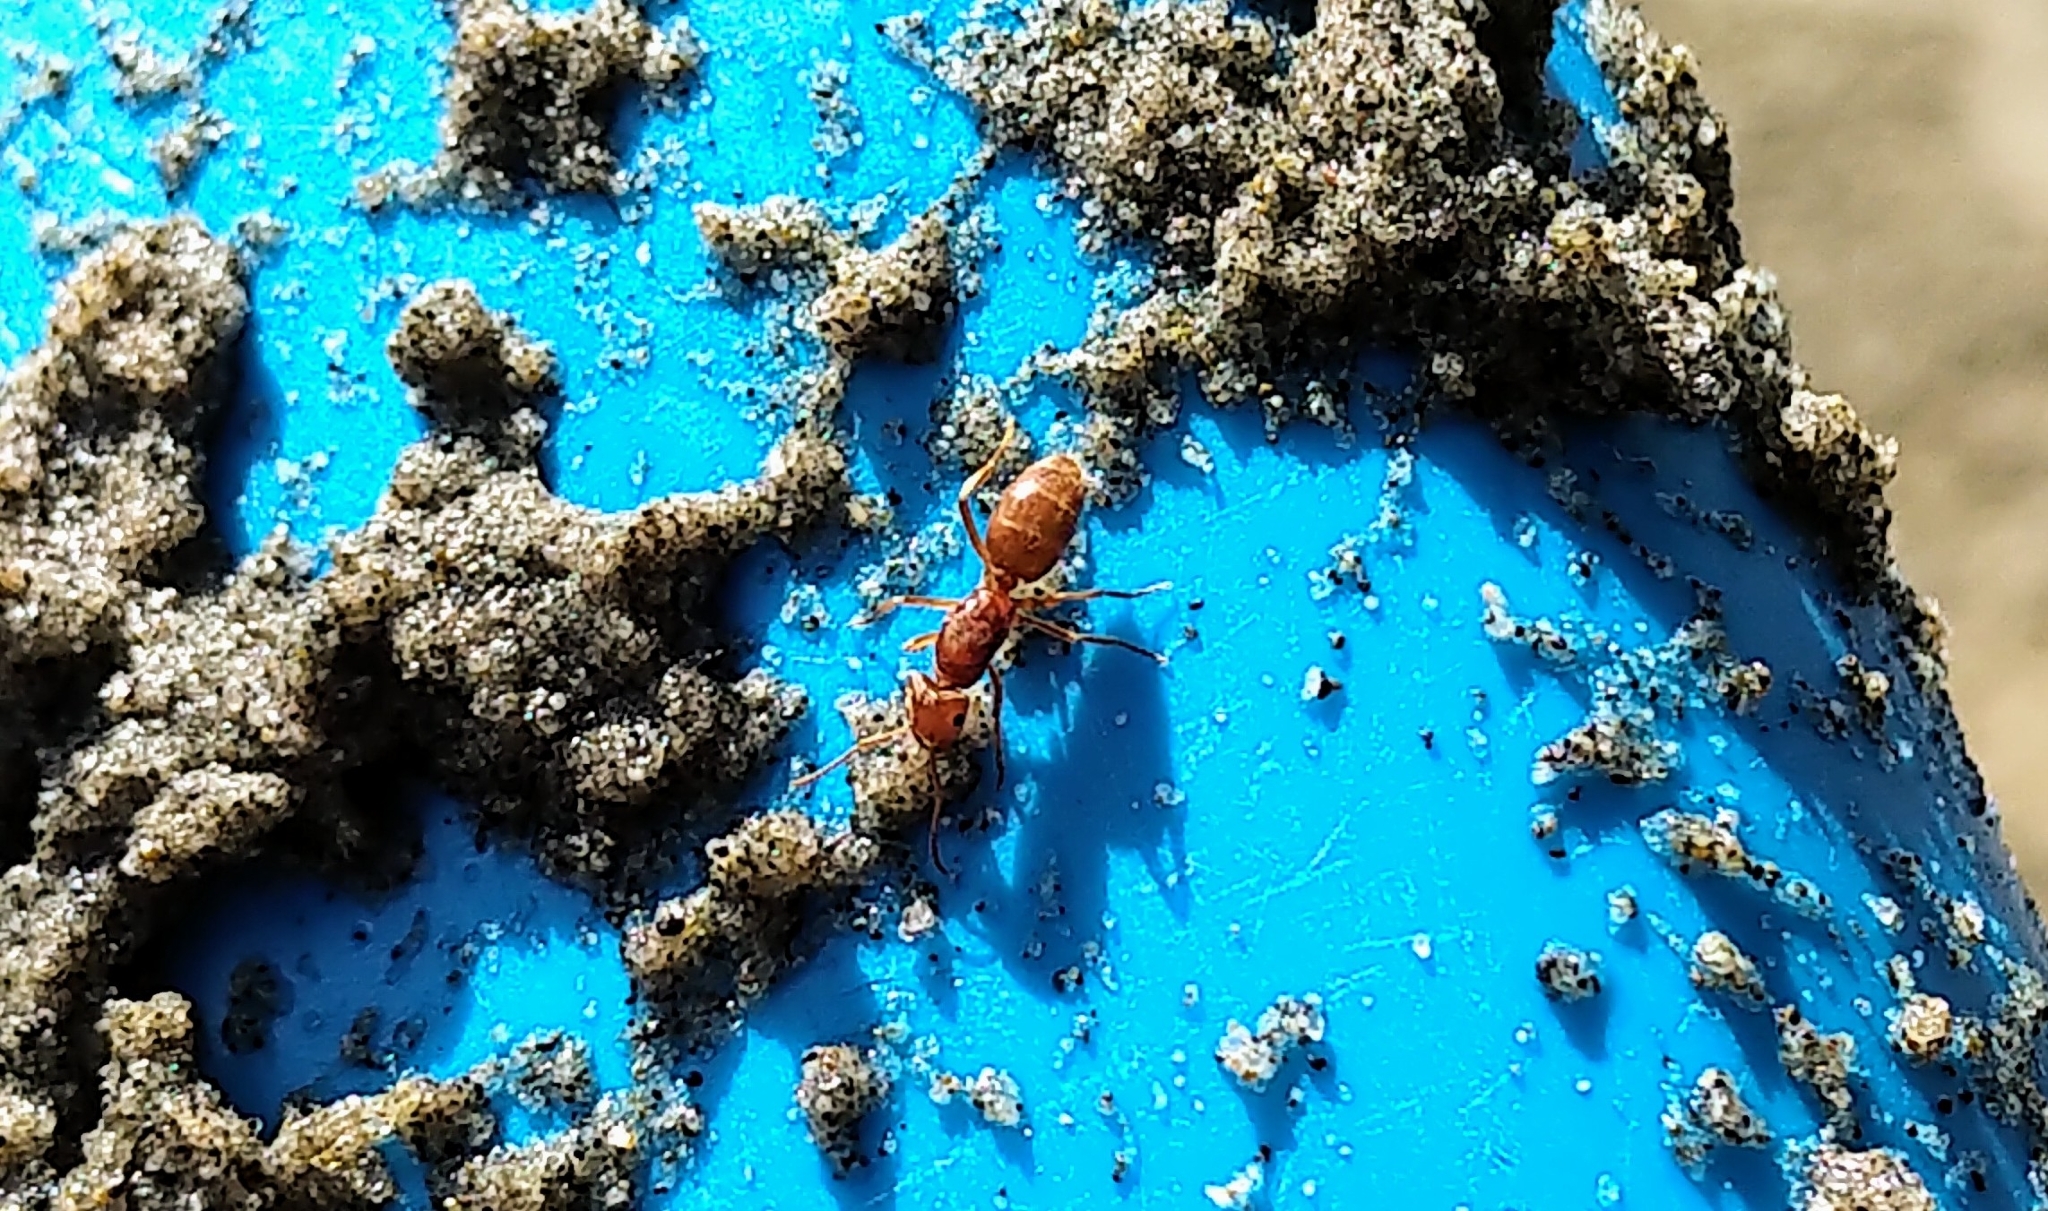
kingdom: Animalia
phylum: Arthropoda
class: Insecta
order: Hymenoptera
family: Formicidae
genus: Lasius
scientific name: Lasius subumbratus
